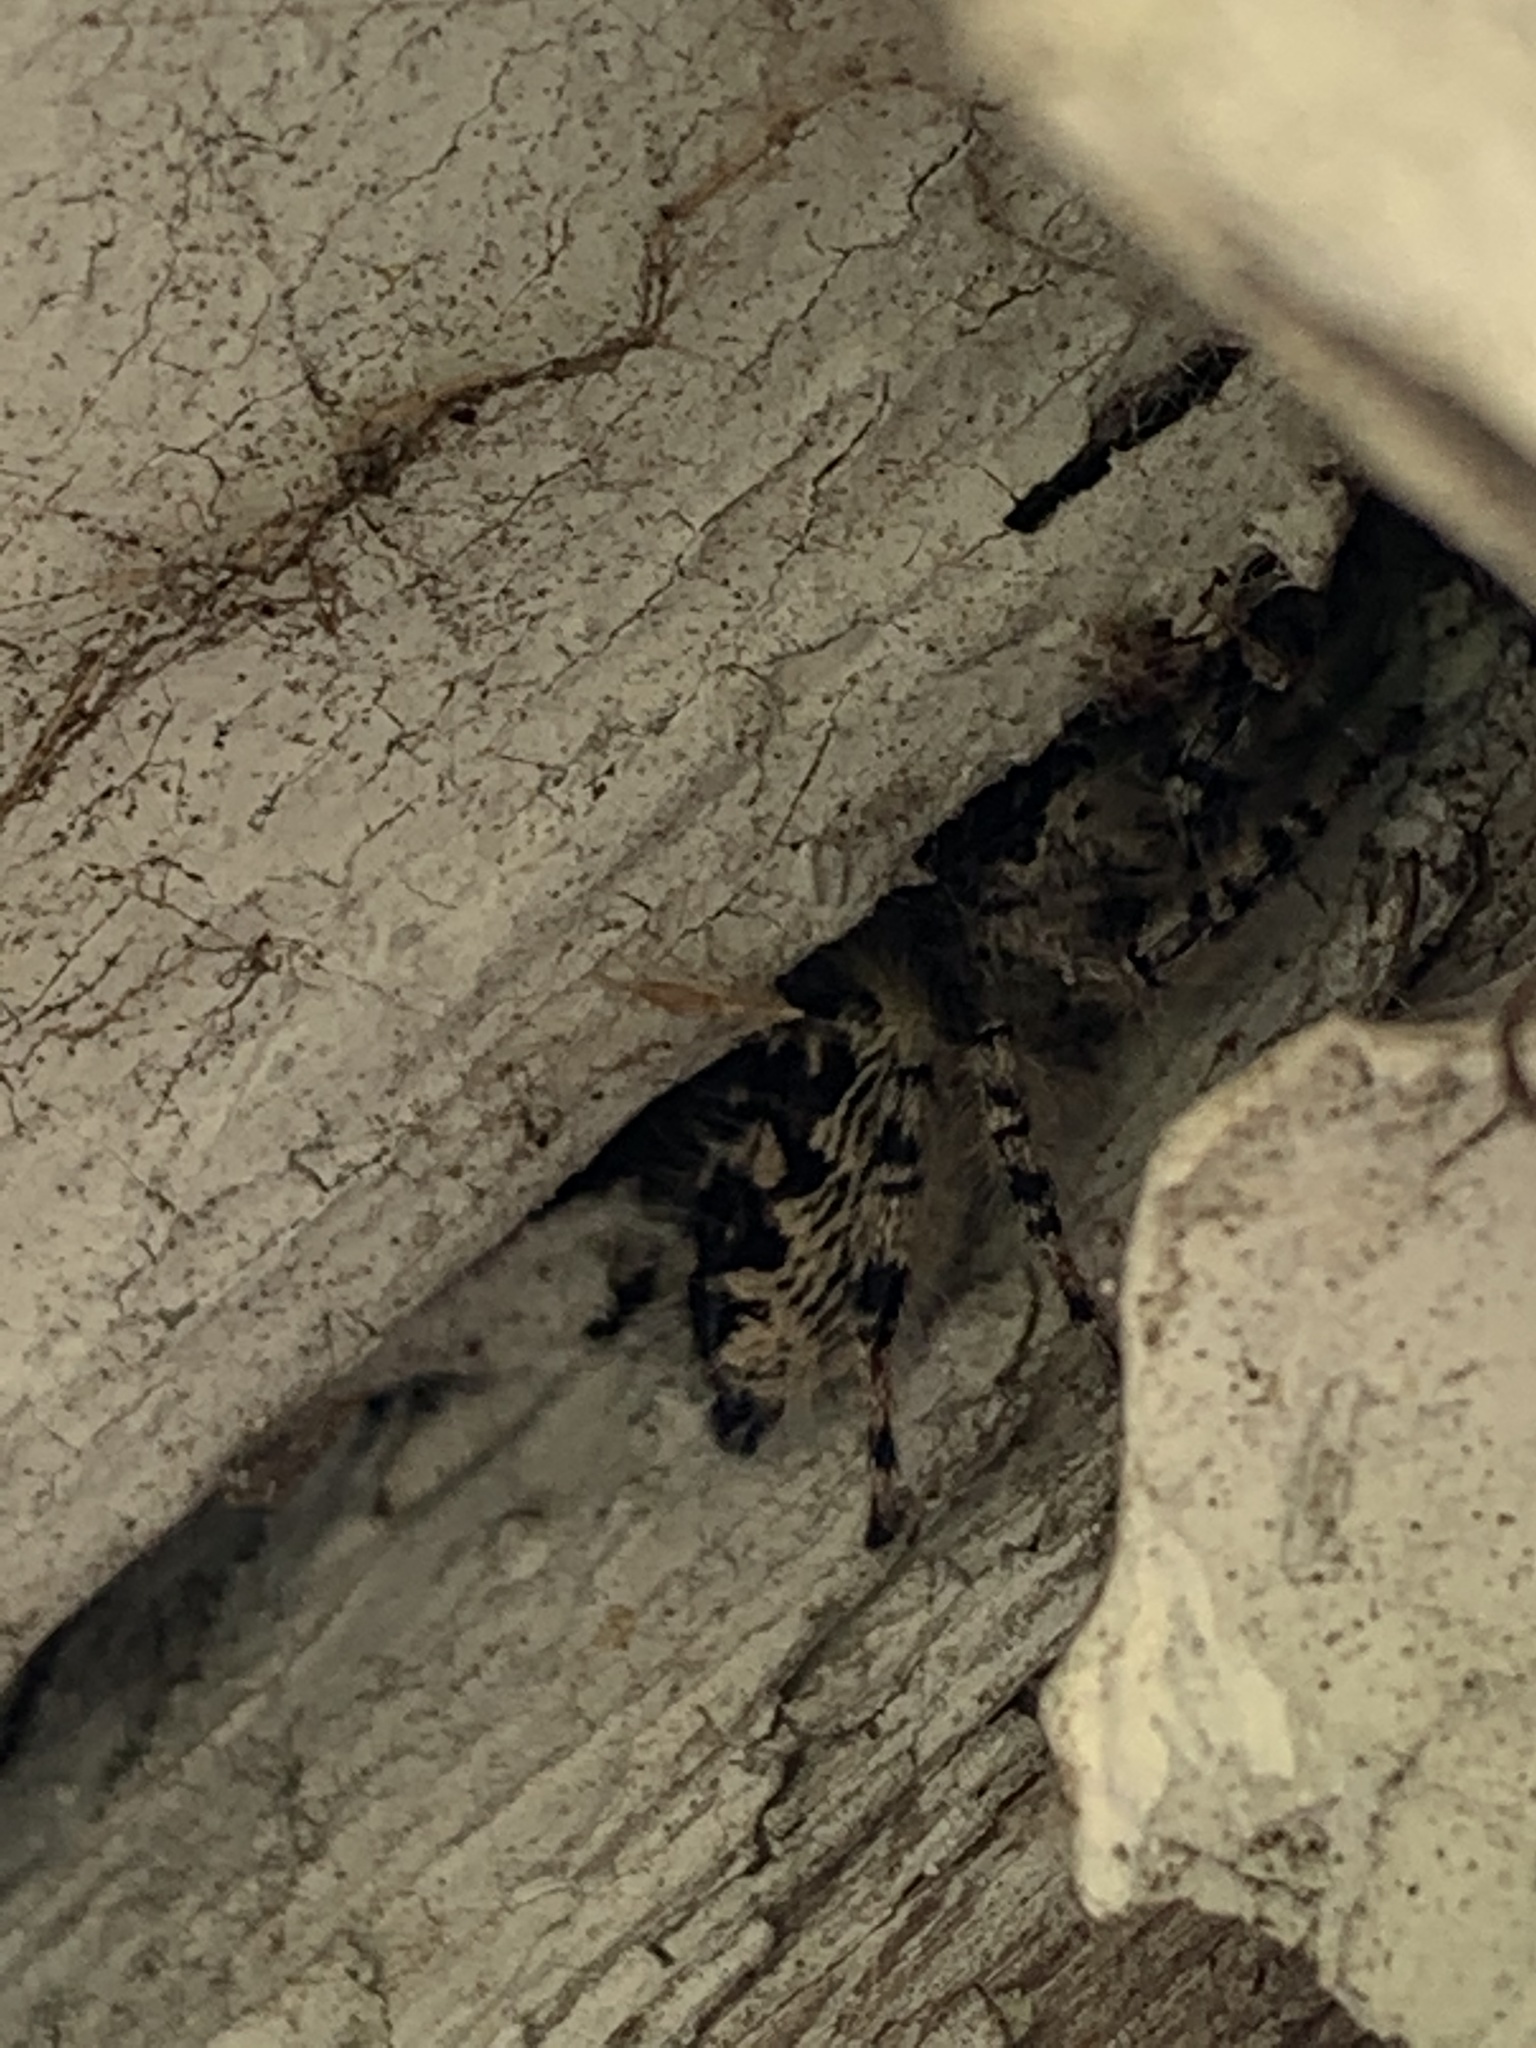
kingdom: Animalia
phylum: Arthropoda
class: Arachnida
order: Araneae
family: Salticidae
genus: Phidippus
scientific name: Phidippus otiosus
